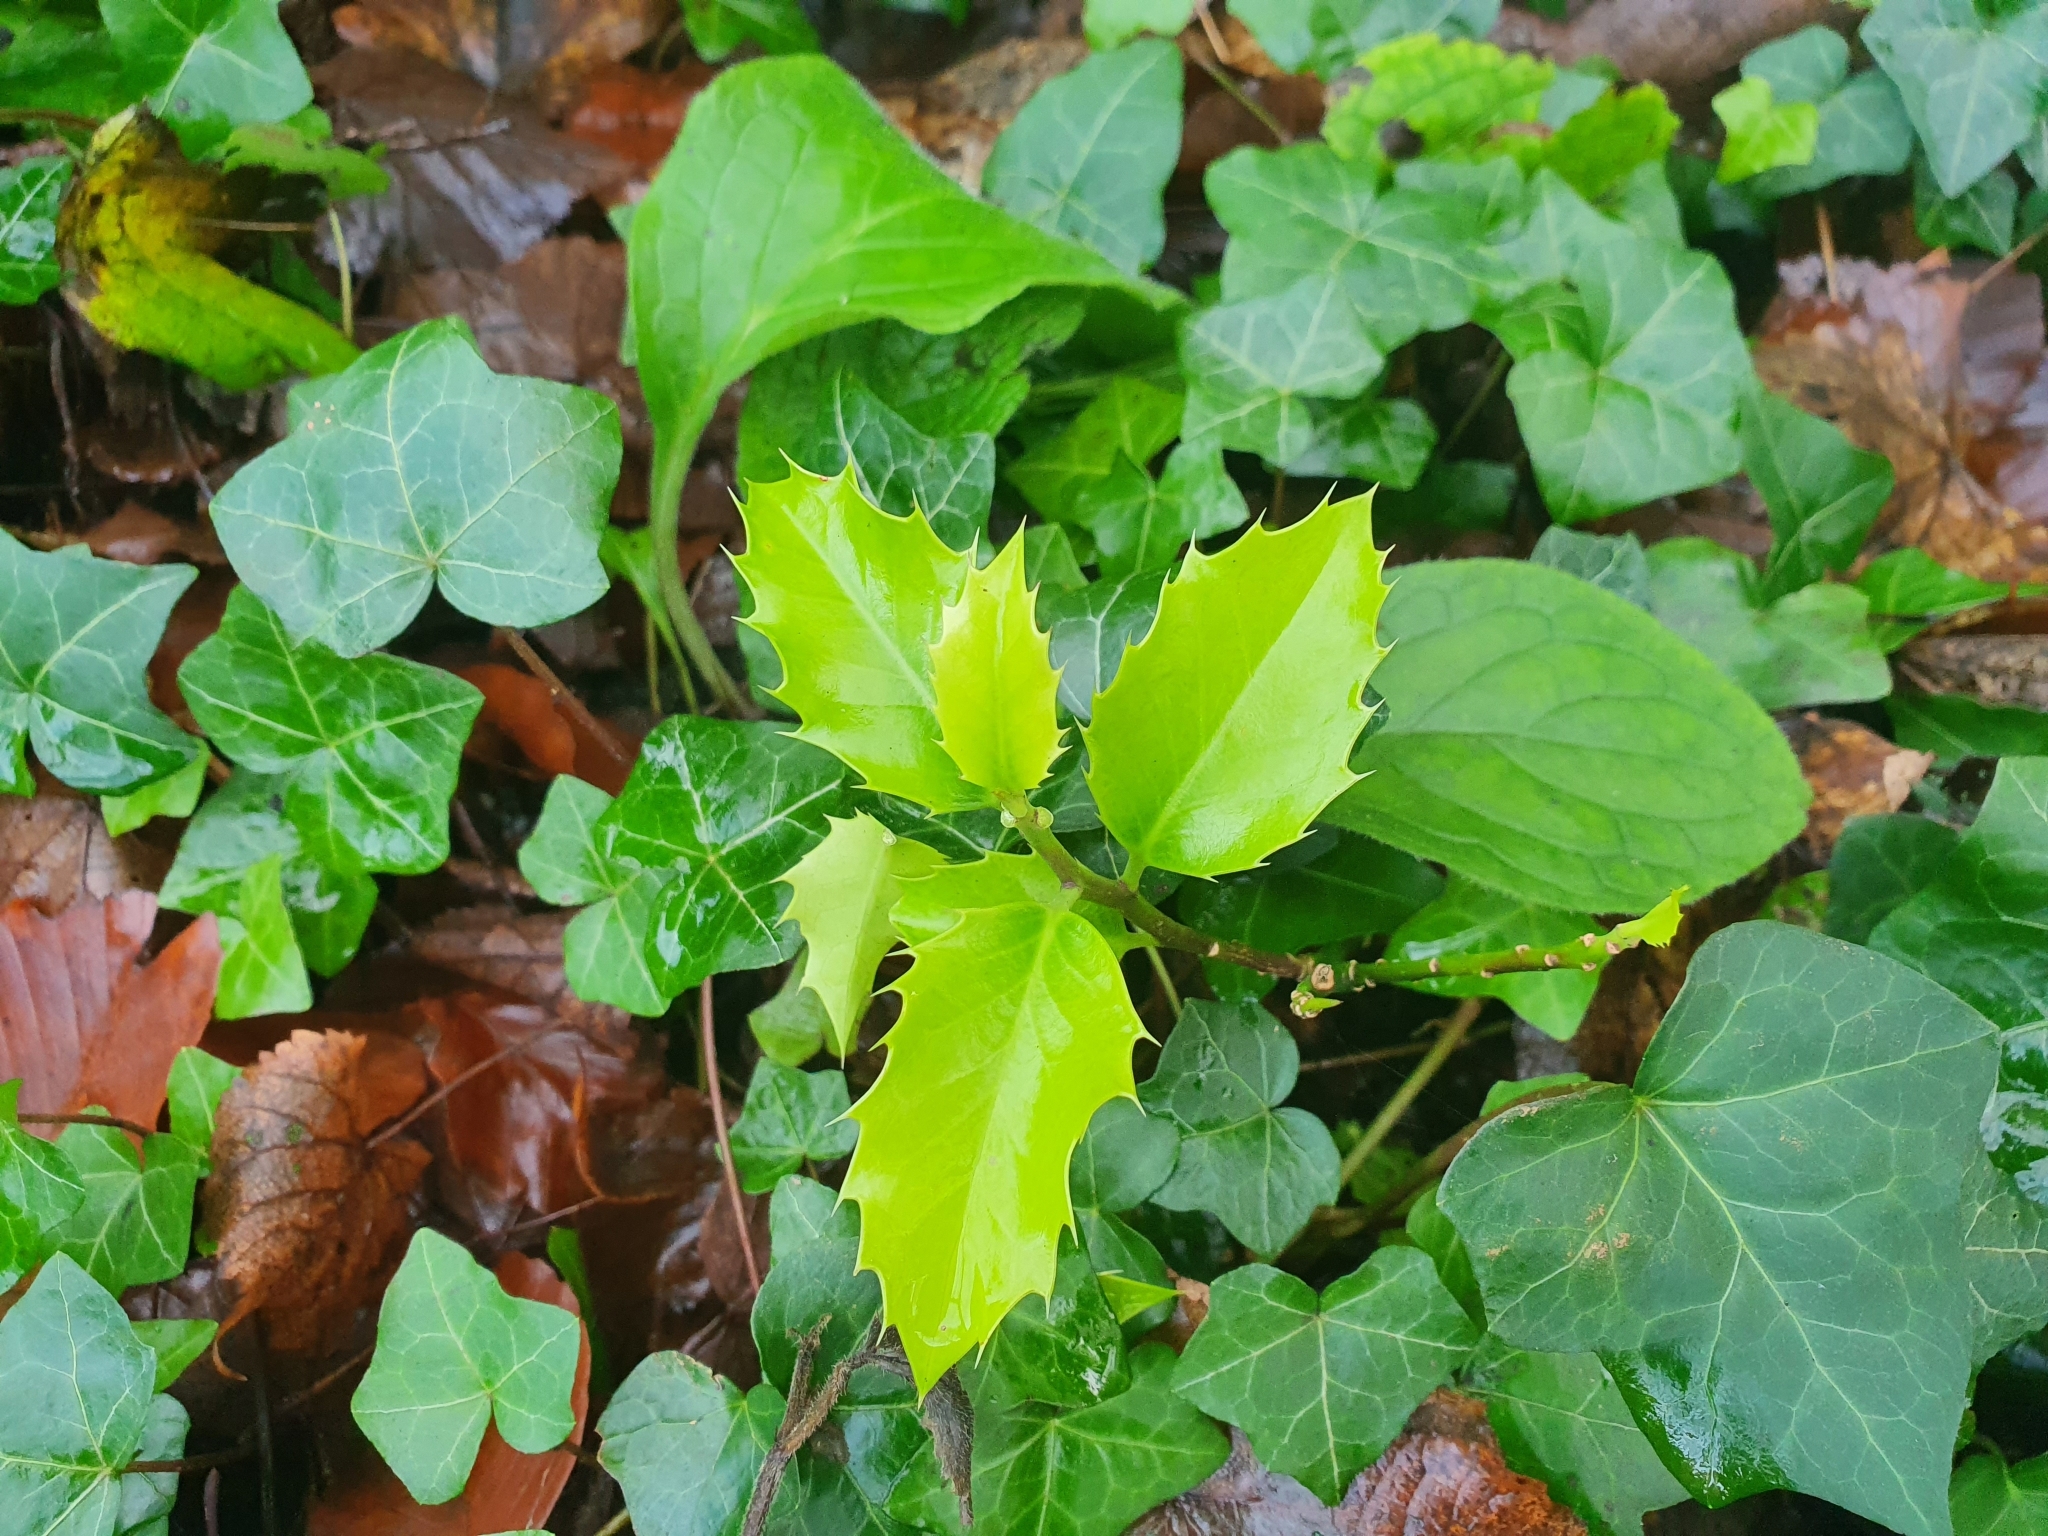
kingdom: Plantae
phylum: Tracheophyta
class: Magnoliopsida
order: Aquifoliales
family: Aquifoliaceae
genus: Ilex
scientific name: Ilex aquifolium
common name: English holly
